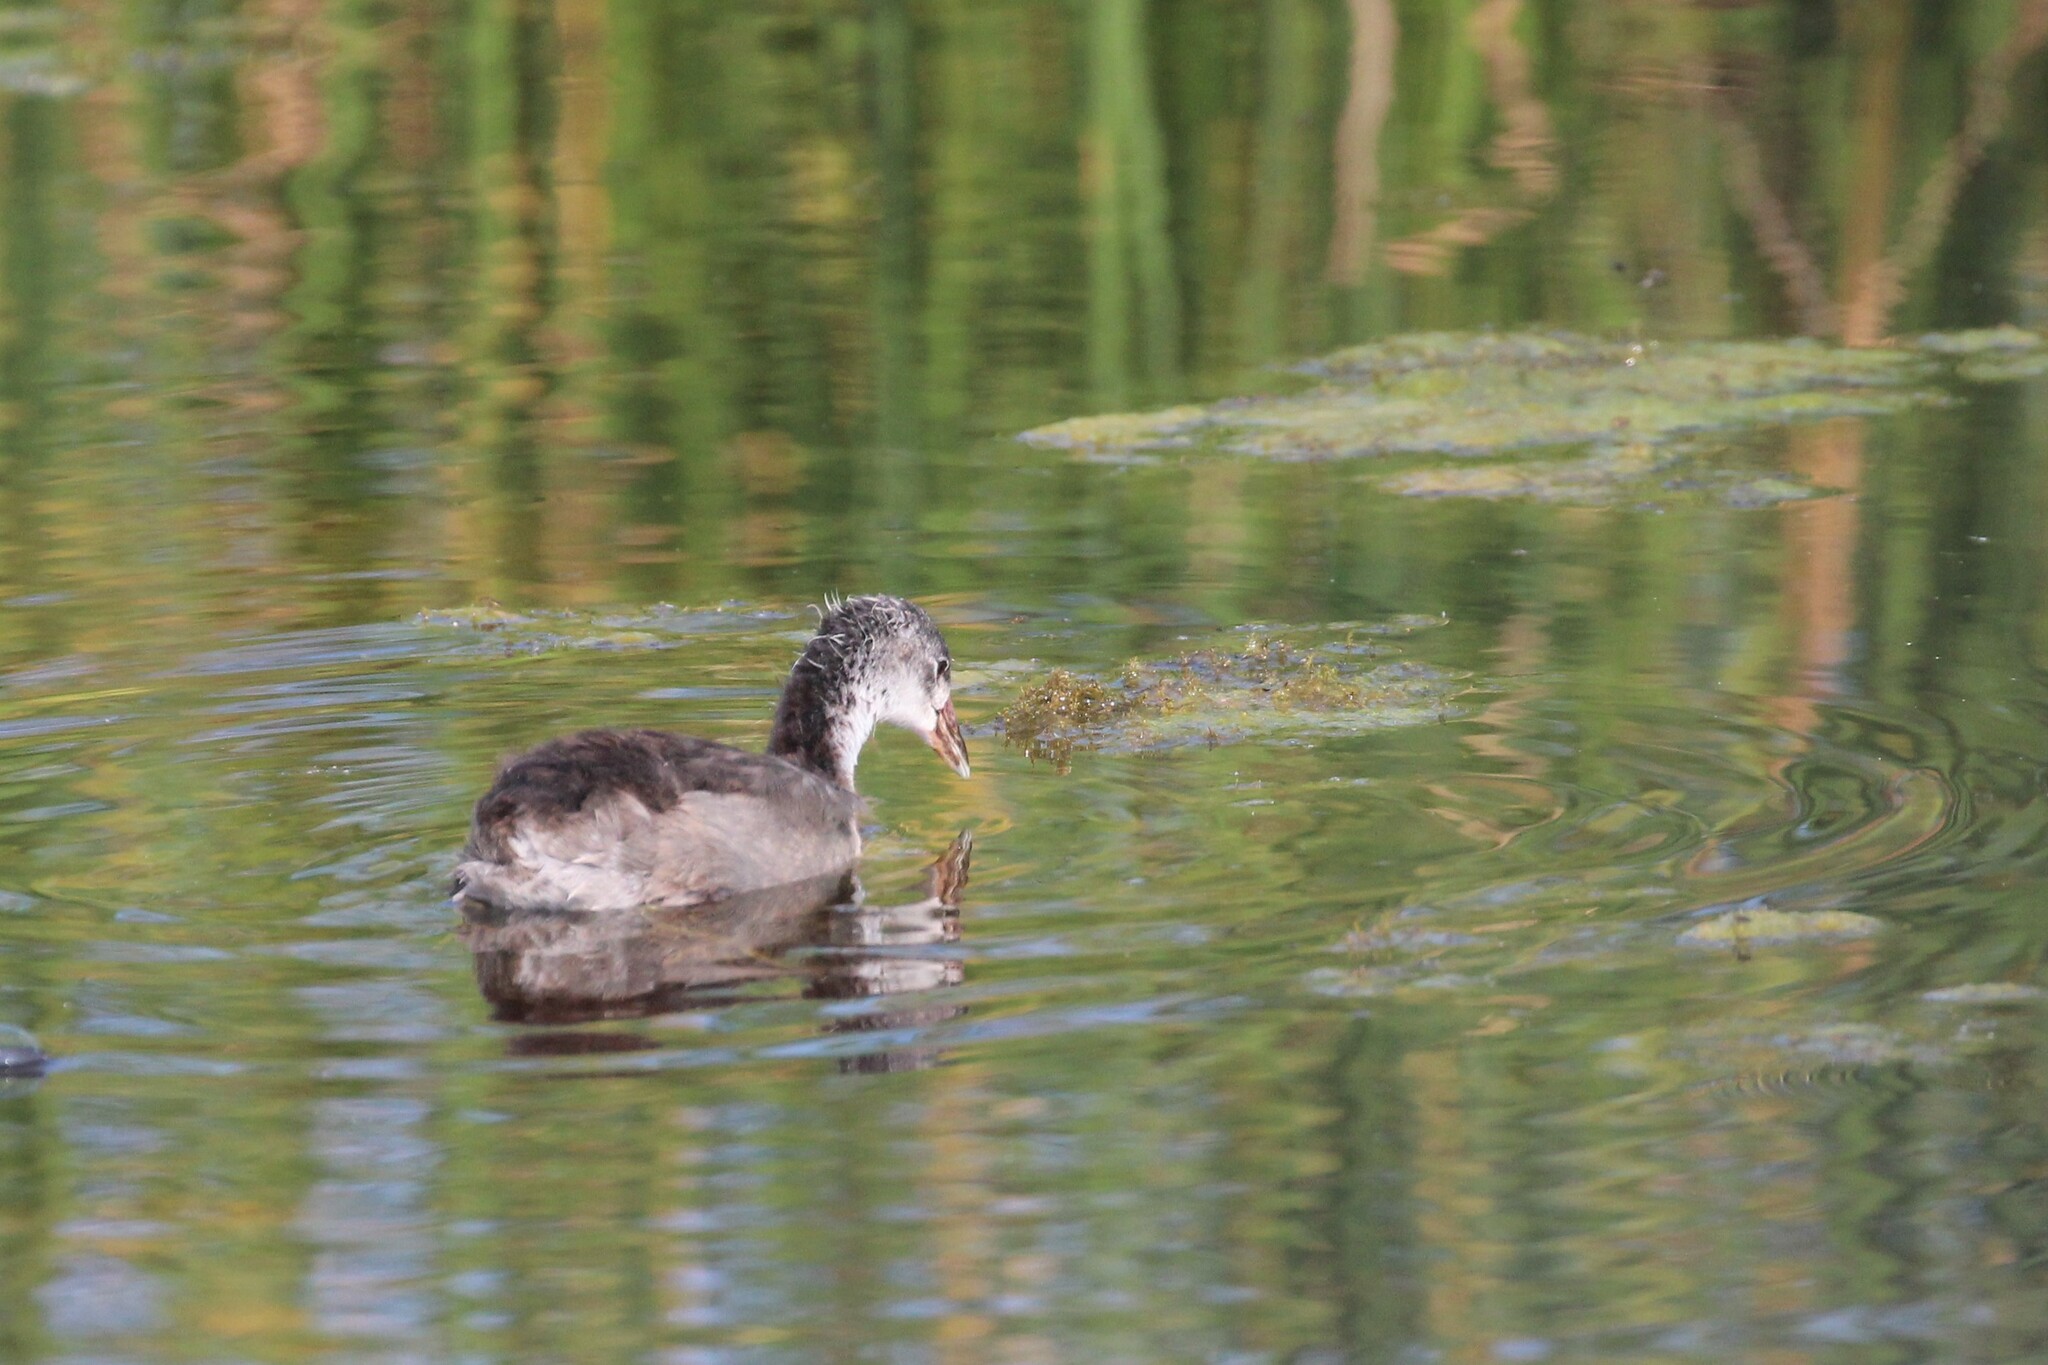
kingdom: Animalia
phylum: Chordata
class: Aves
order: Gruiformes
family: Rallidae
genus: Fulica
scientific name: Fulica americana
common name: American coot
